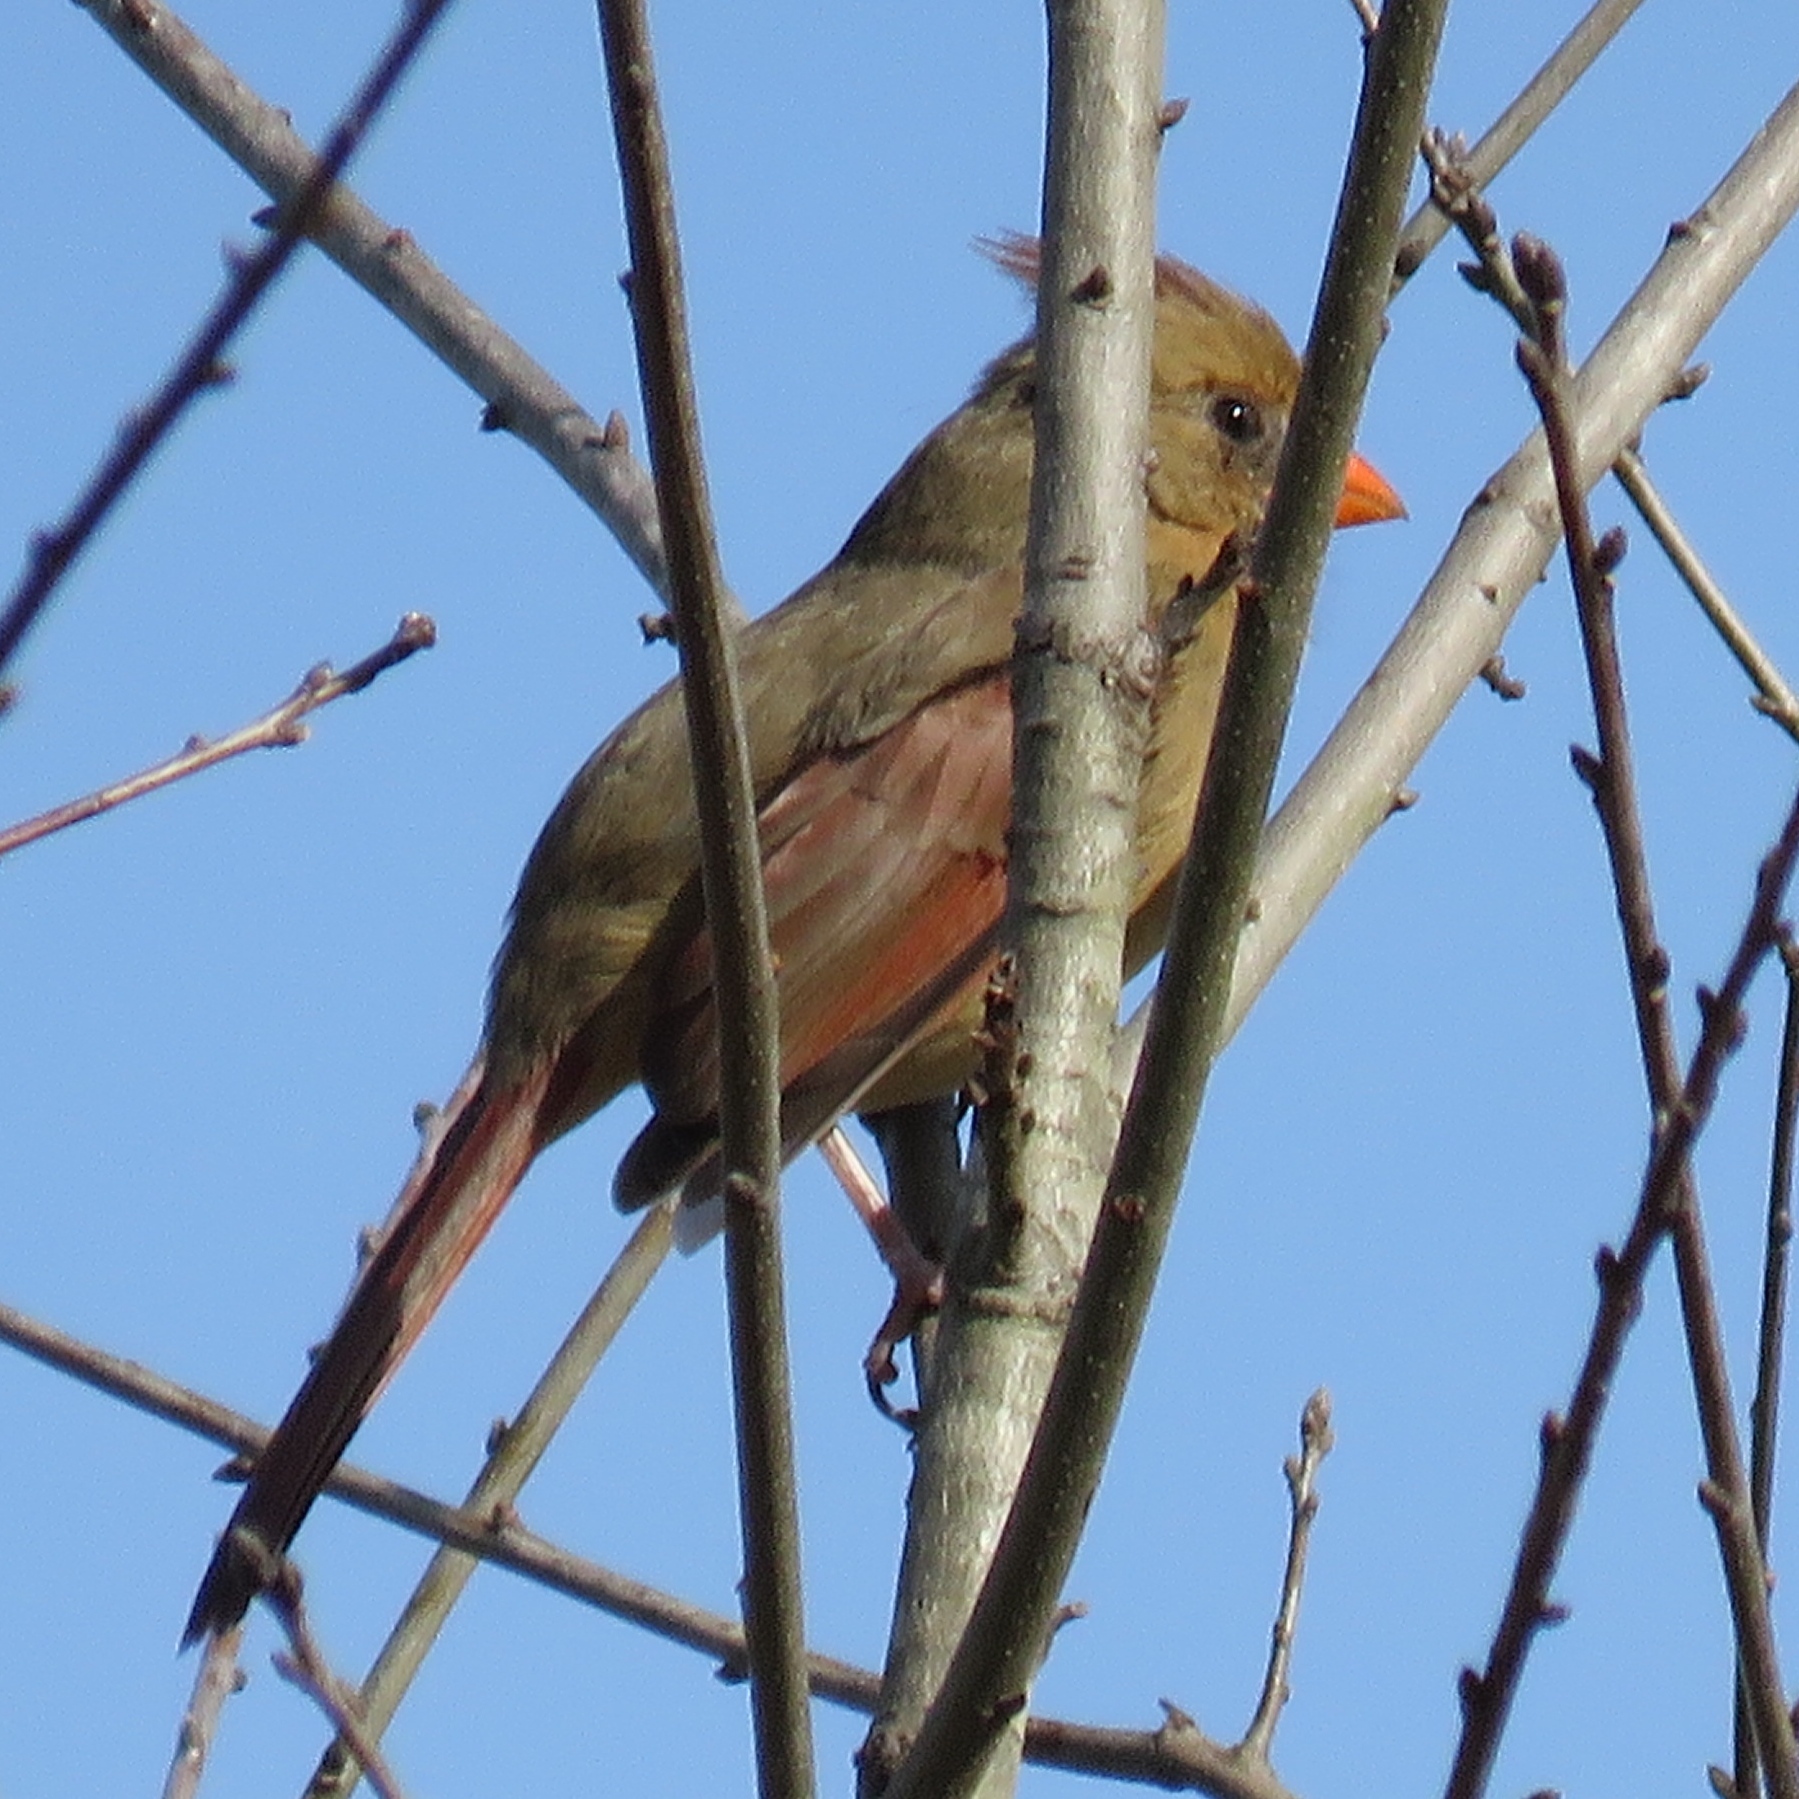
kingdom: Animalia
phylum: Chordata
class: Aves
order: Passeriformes
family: Cardinalidae
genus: Cardinalis
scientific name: Cardinalis cardinalis
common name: Northern cardinal
